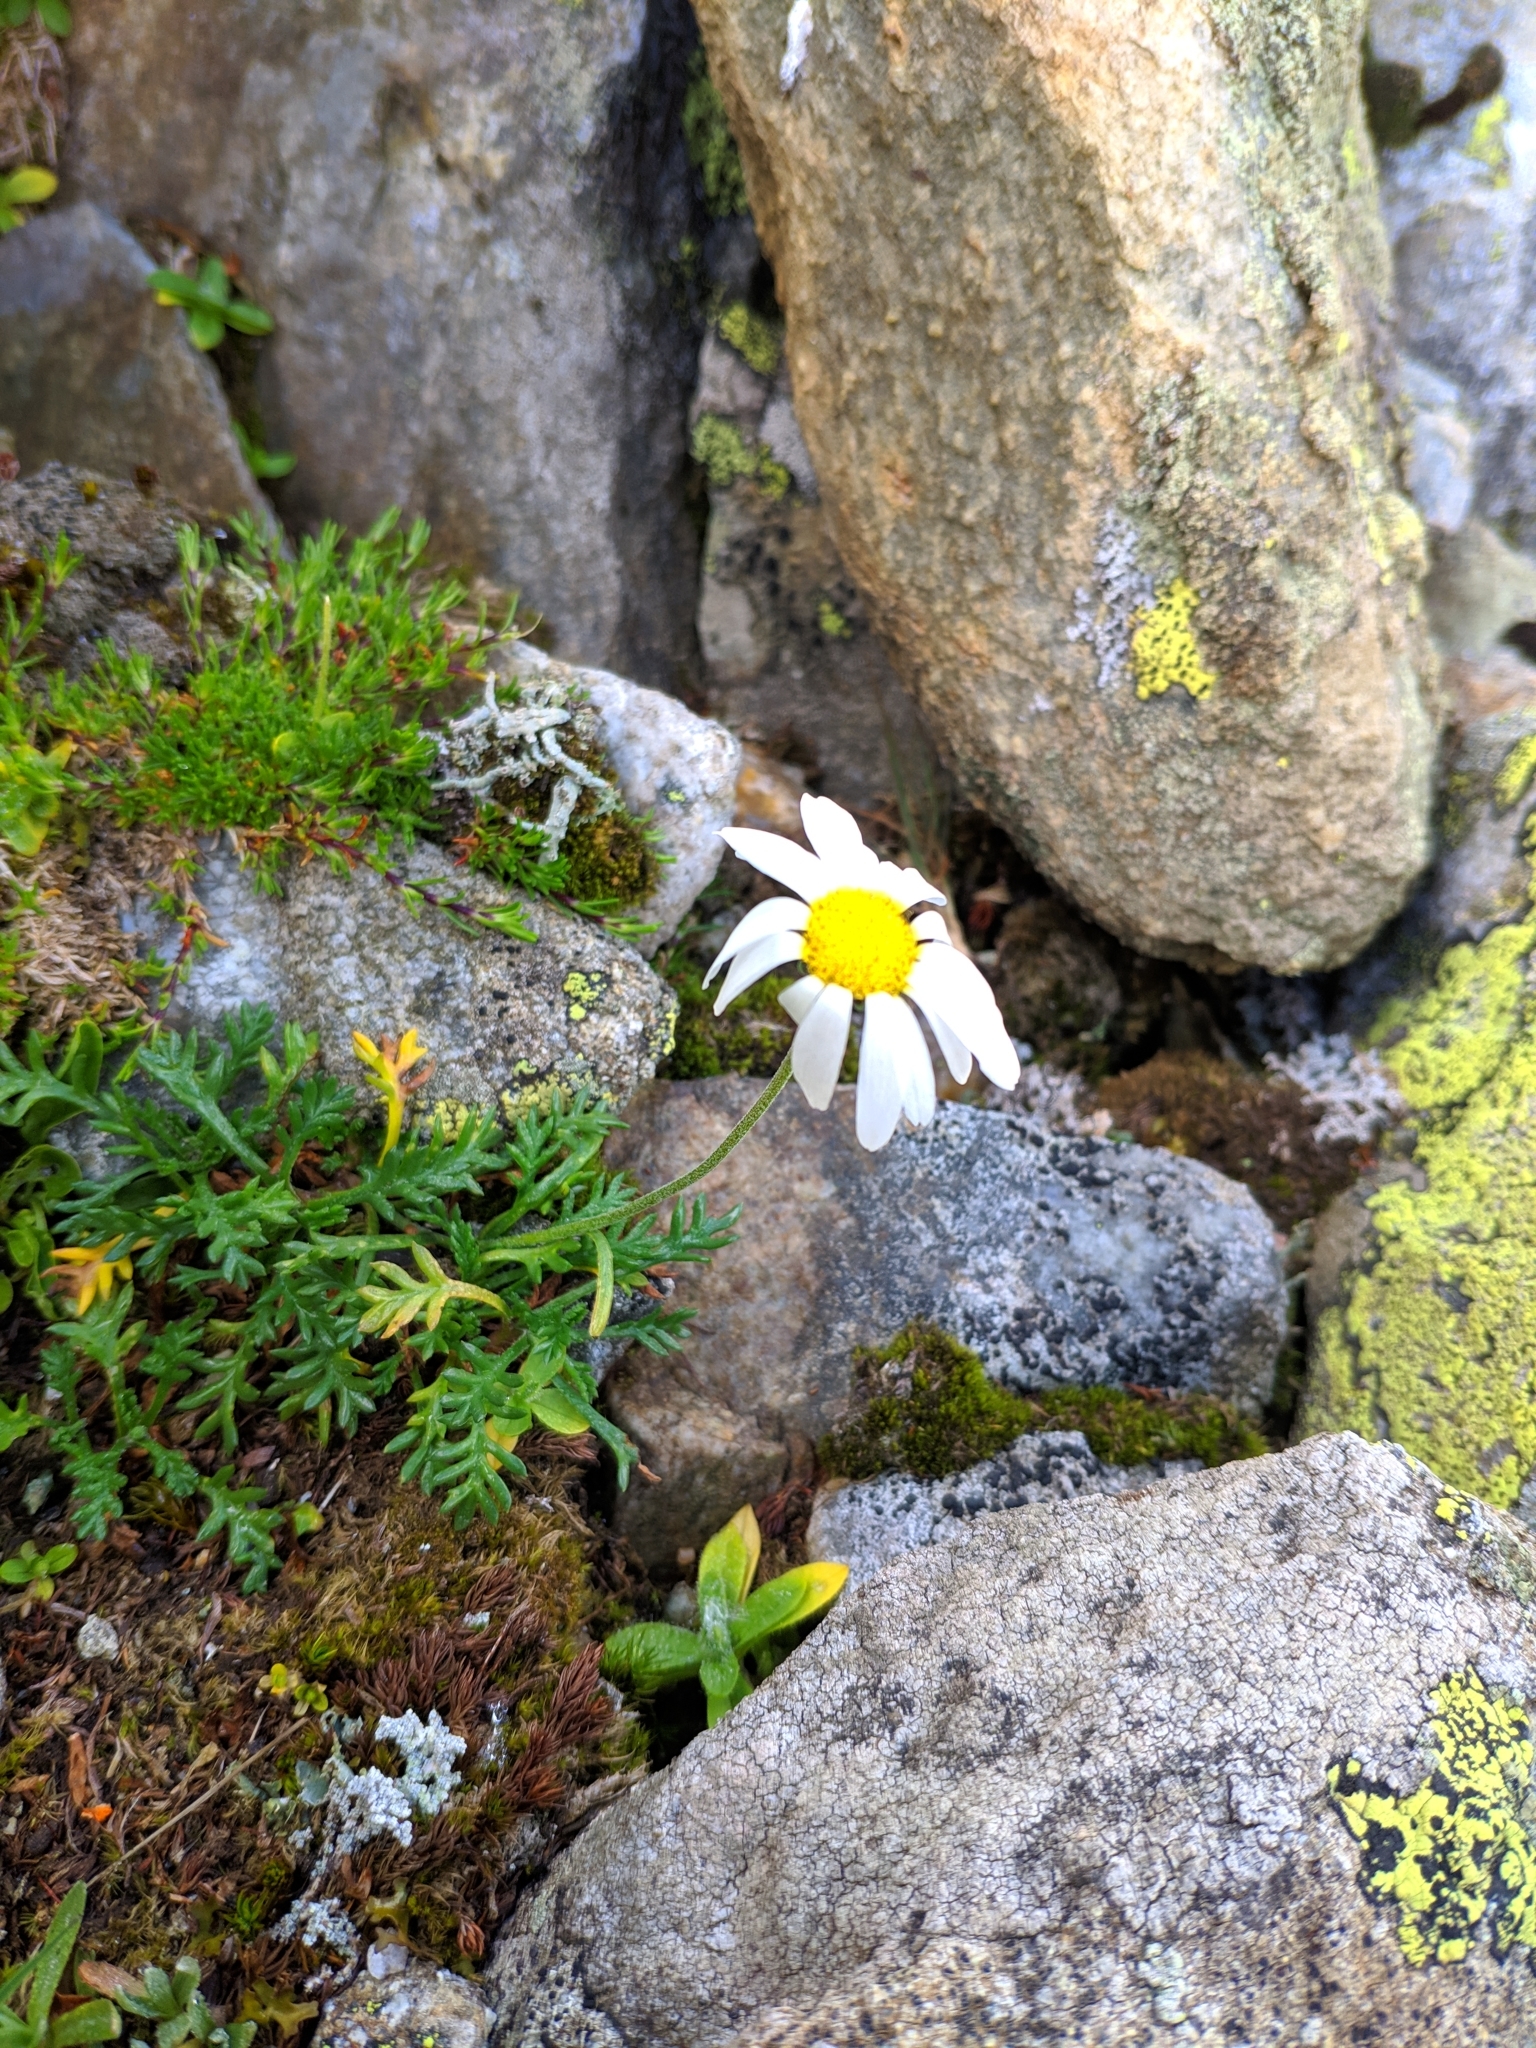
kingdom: Plantae
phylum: Tracheophyta
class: Magnoliopsida
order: Asterales
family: Asteraceae
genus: Leucanthemopsis
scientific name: Leucanthemopsis alpina
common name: Alpine moon daisy
